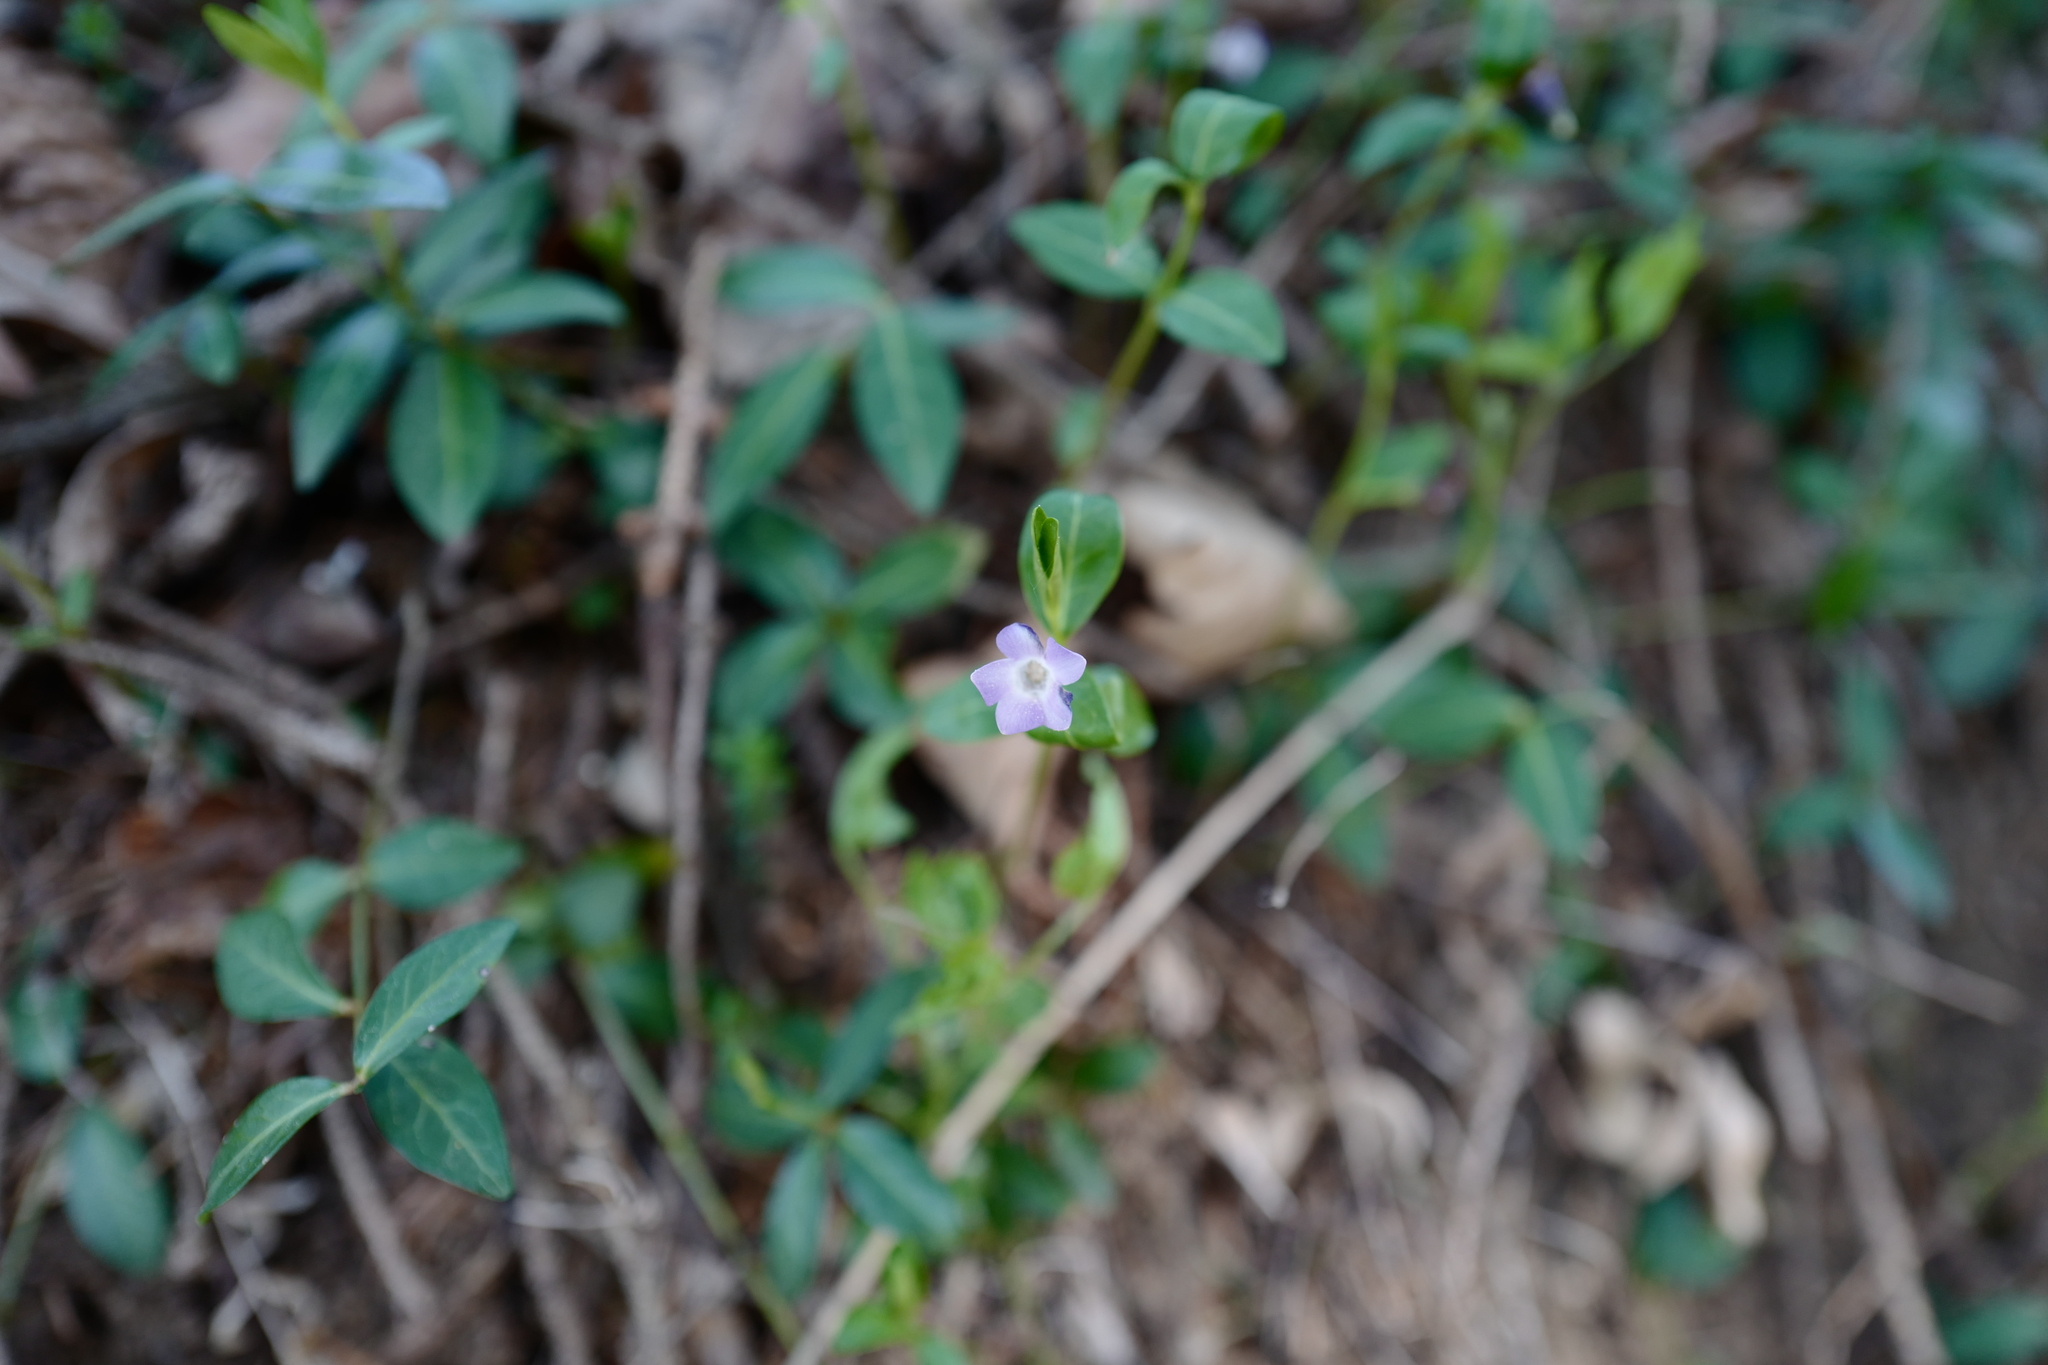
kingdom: Plantae
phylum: Tracheophyta
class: Magnoliopsida
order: Gentianales
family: Apocynaceae
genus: Vinca
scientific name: Vinca minor
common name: Lesser periwinkle
